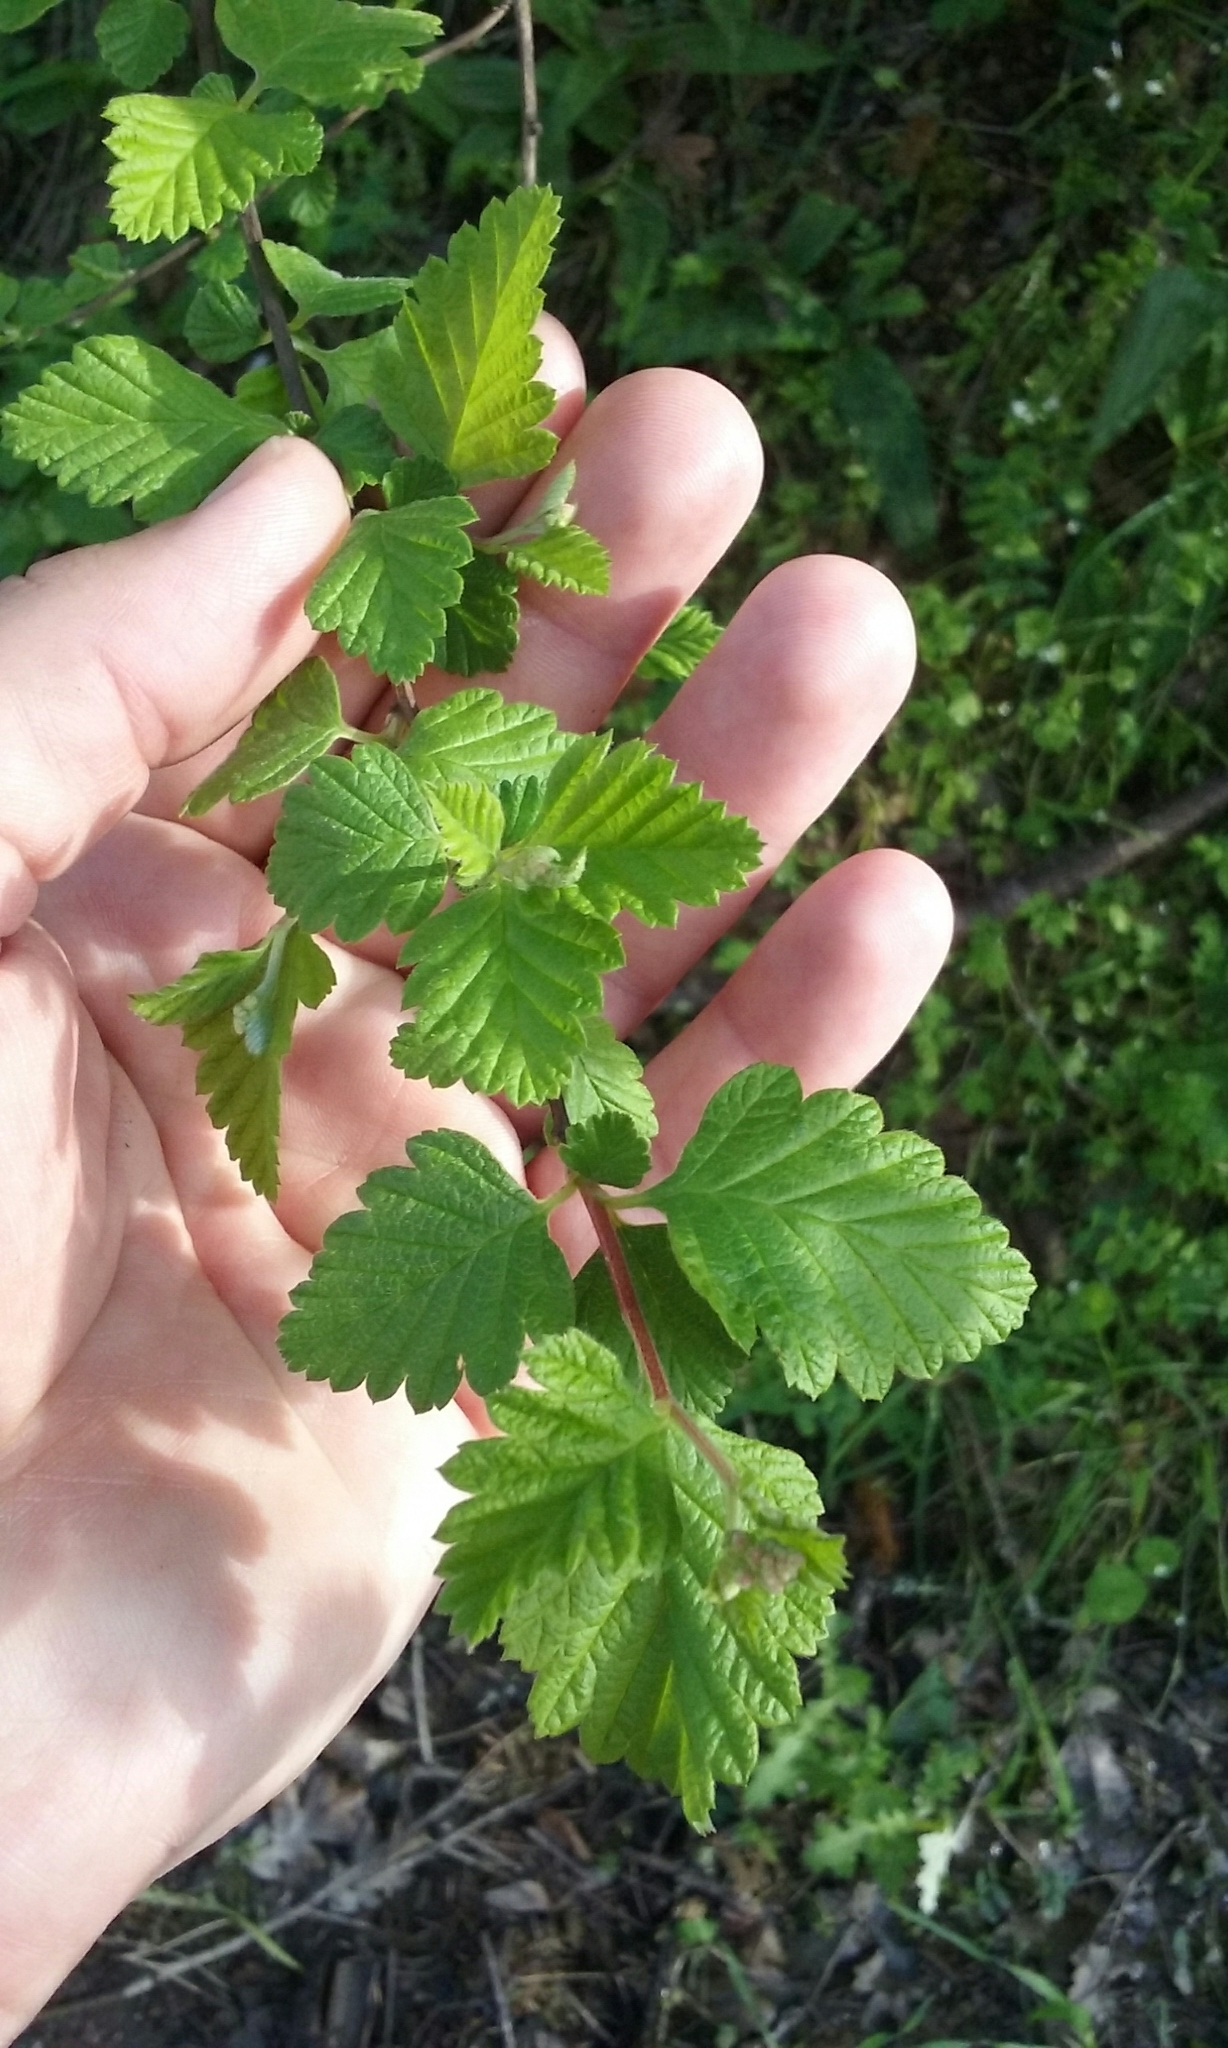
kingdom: Plantae
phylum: Tracheophyta
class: Magnoliopsida
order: Rosales
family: Rosaceae
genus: Holodiscus
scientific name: Holodiscus discolor
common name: Oceanspray
